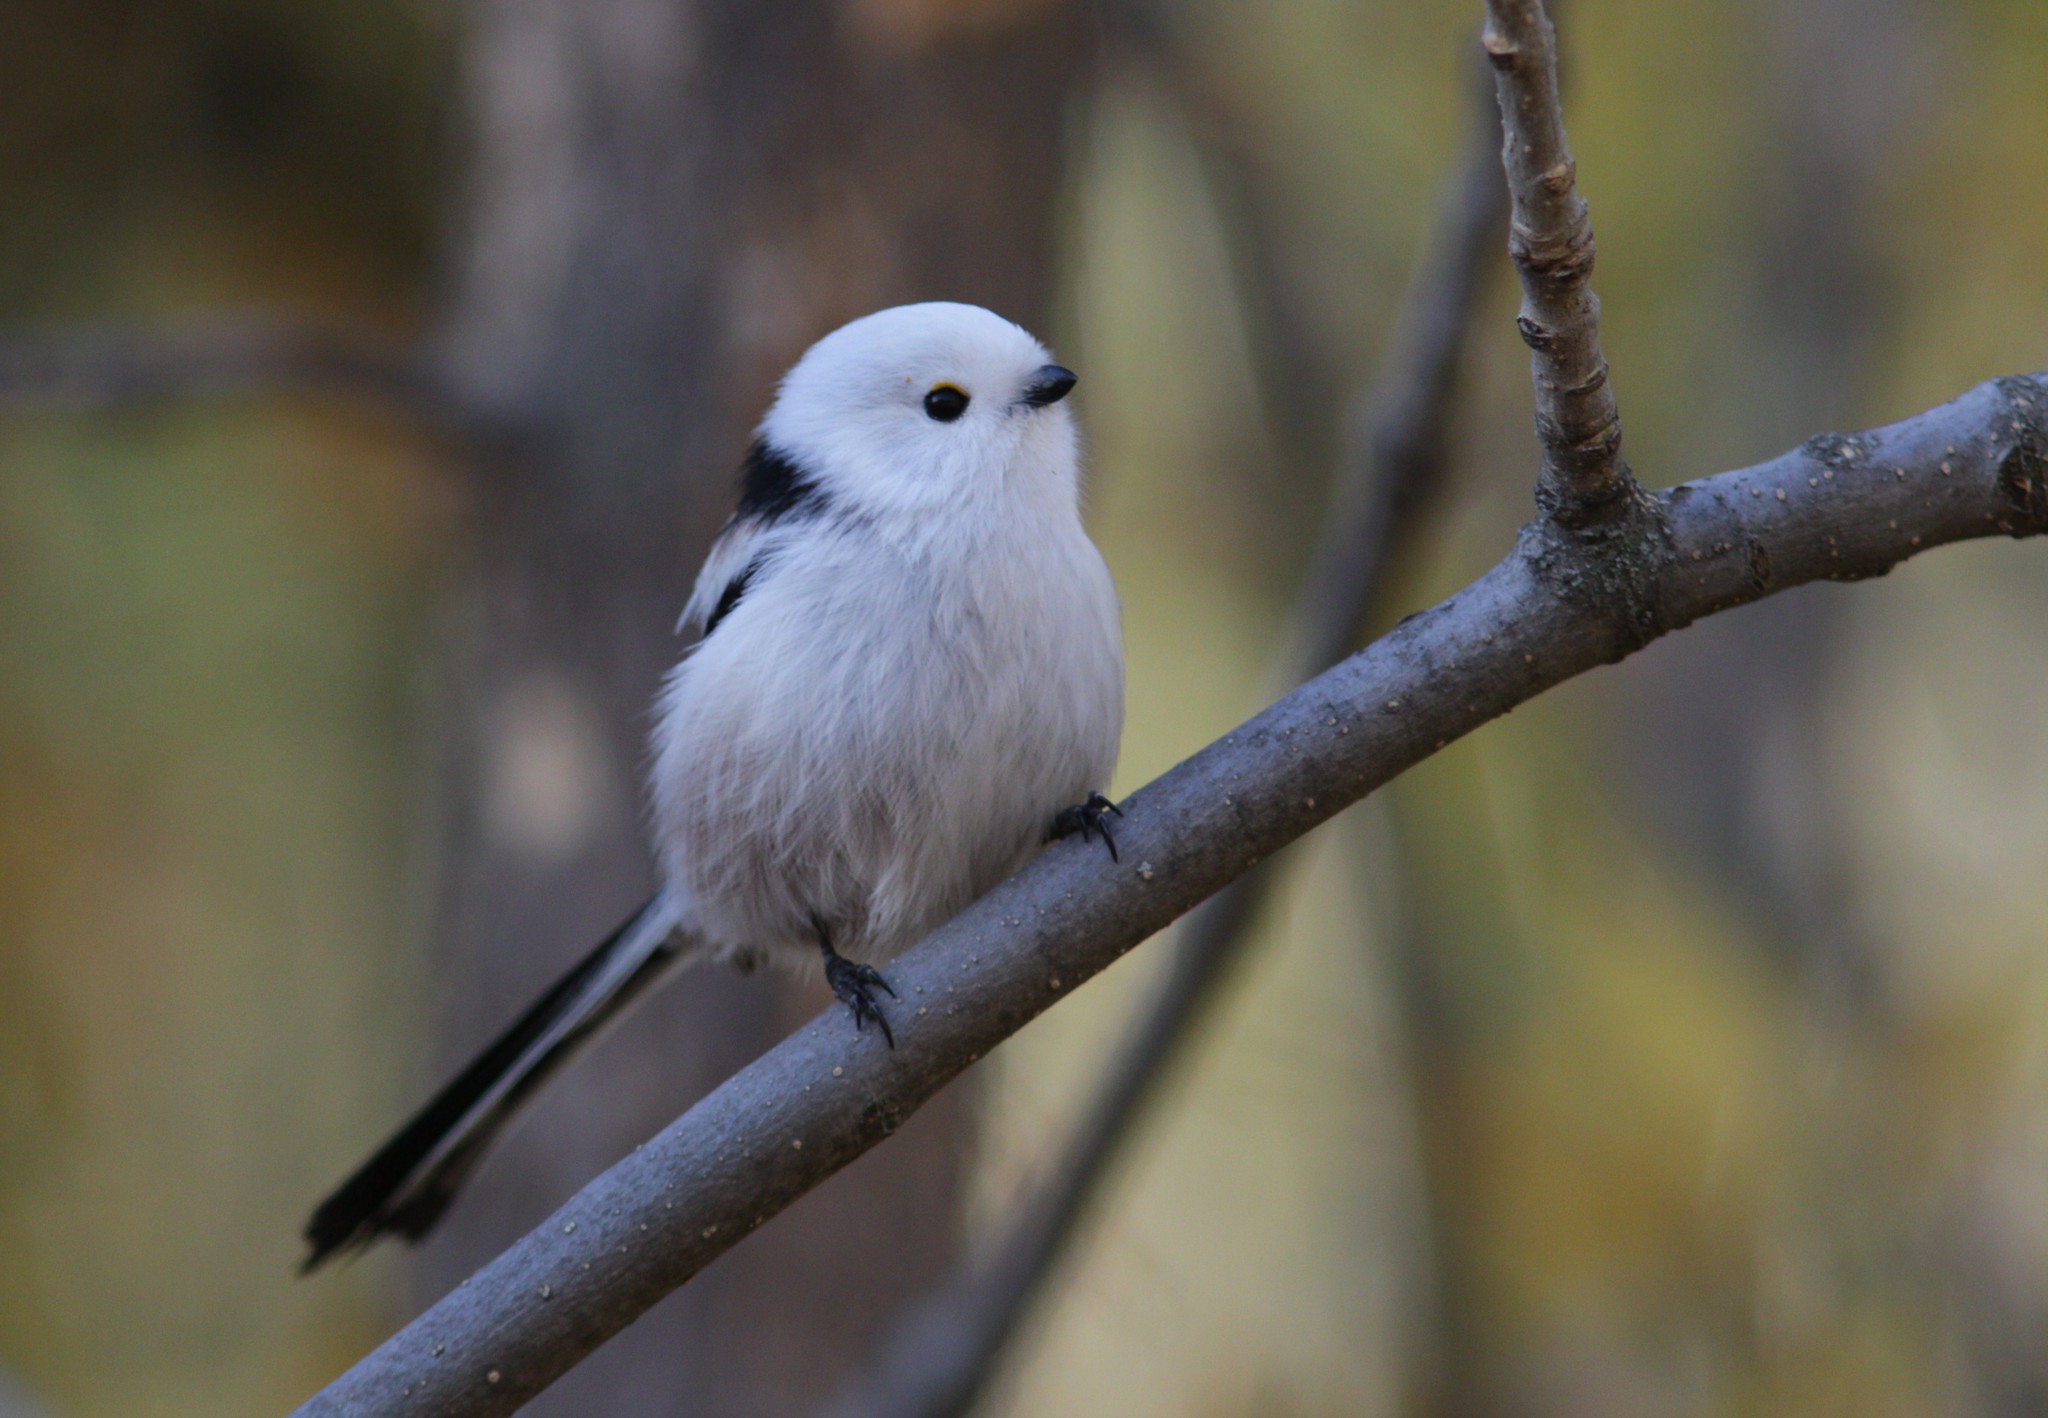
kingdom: Animalia
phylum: Chordata
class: Aves
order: Passeriformes
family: Aegithalidae
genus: Aegithalos
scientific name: Aegithalos caudatus
